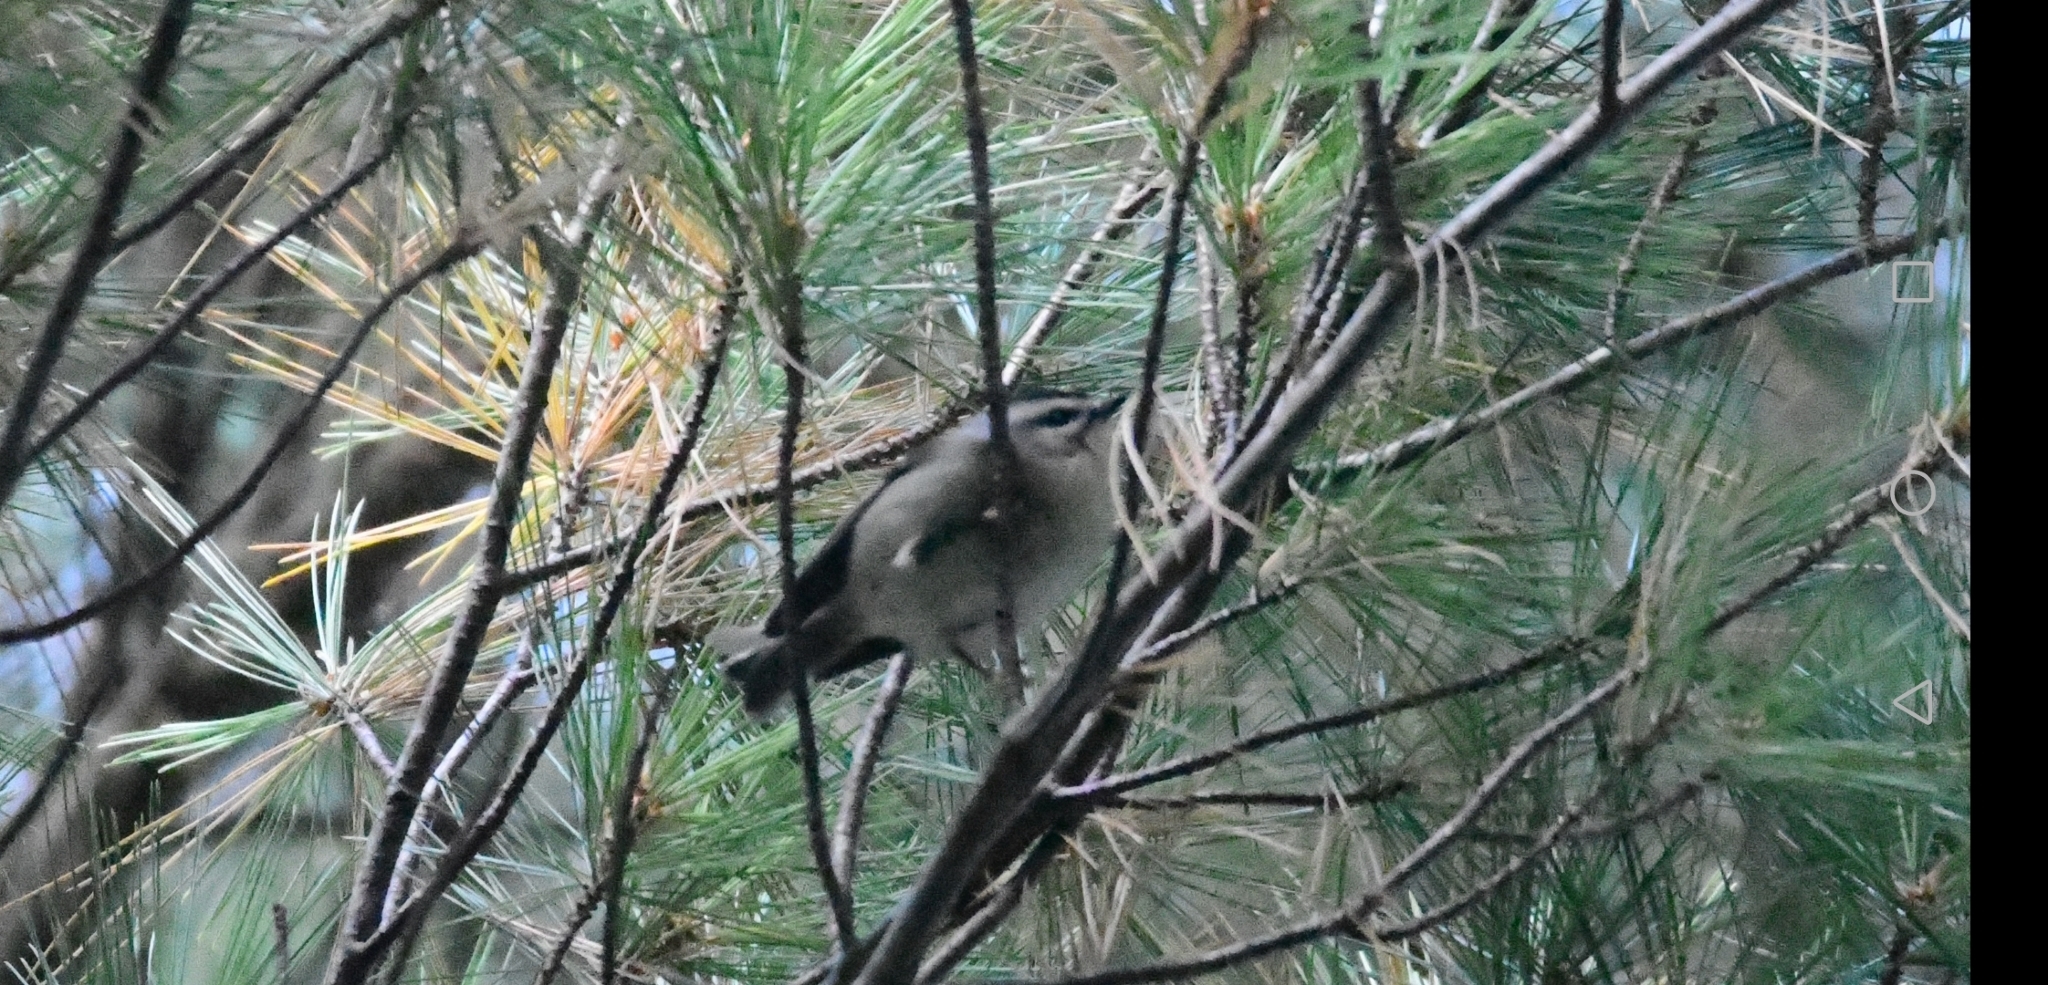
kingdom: Animalia
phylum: Chordata
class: Aves
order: Passeriformes
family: Regulidae
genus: Regulus
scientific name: Regulus satrapa
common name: Golden-crowned kinglet
